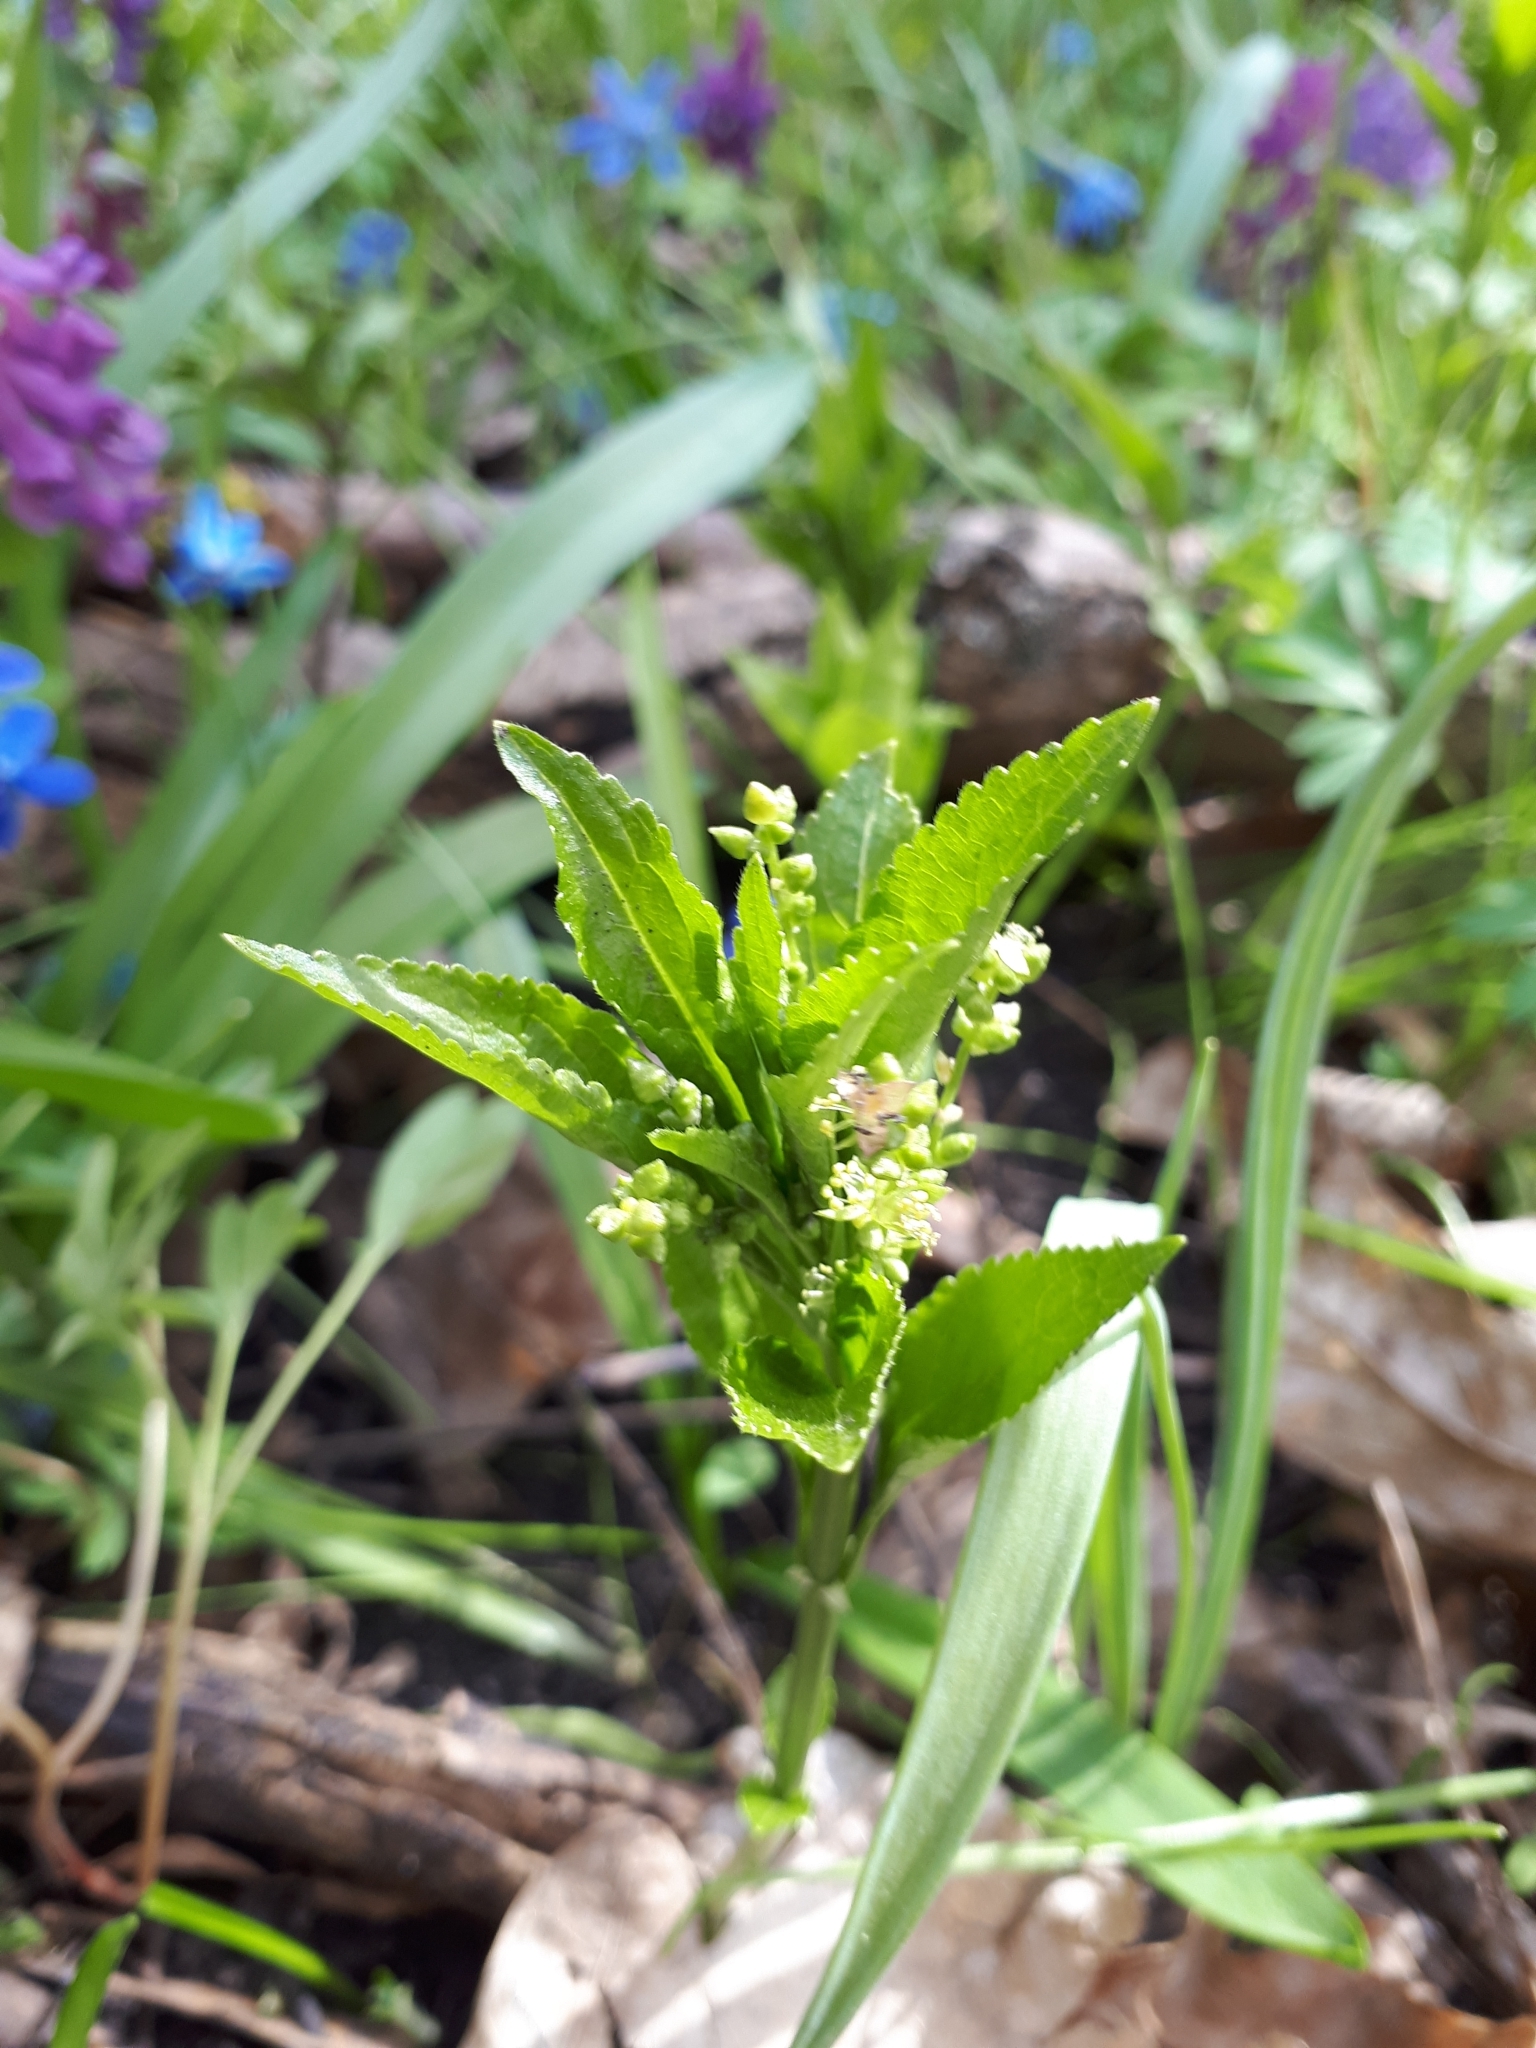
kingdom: Plantae
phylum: Tracheophyta
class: Magnoliopsida
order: Malpighiales
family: Euphorbiaceae
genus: Mercurialis
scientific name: Mercurialis perennis
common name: Dog mercury
